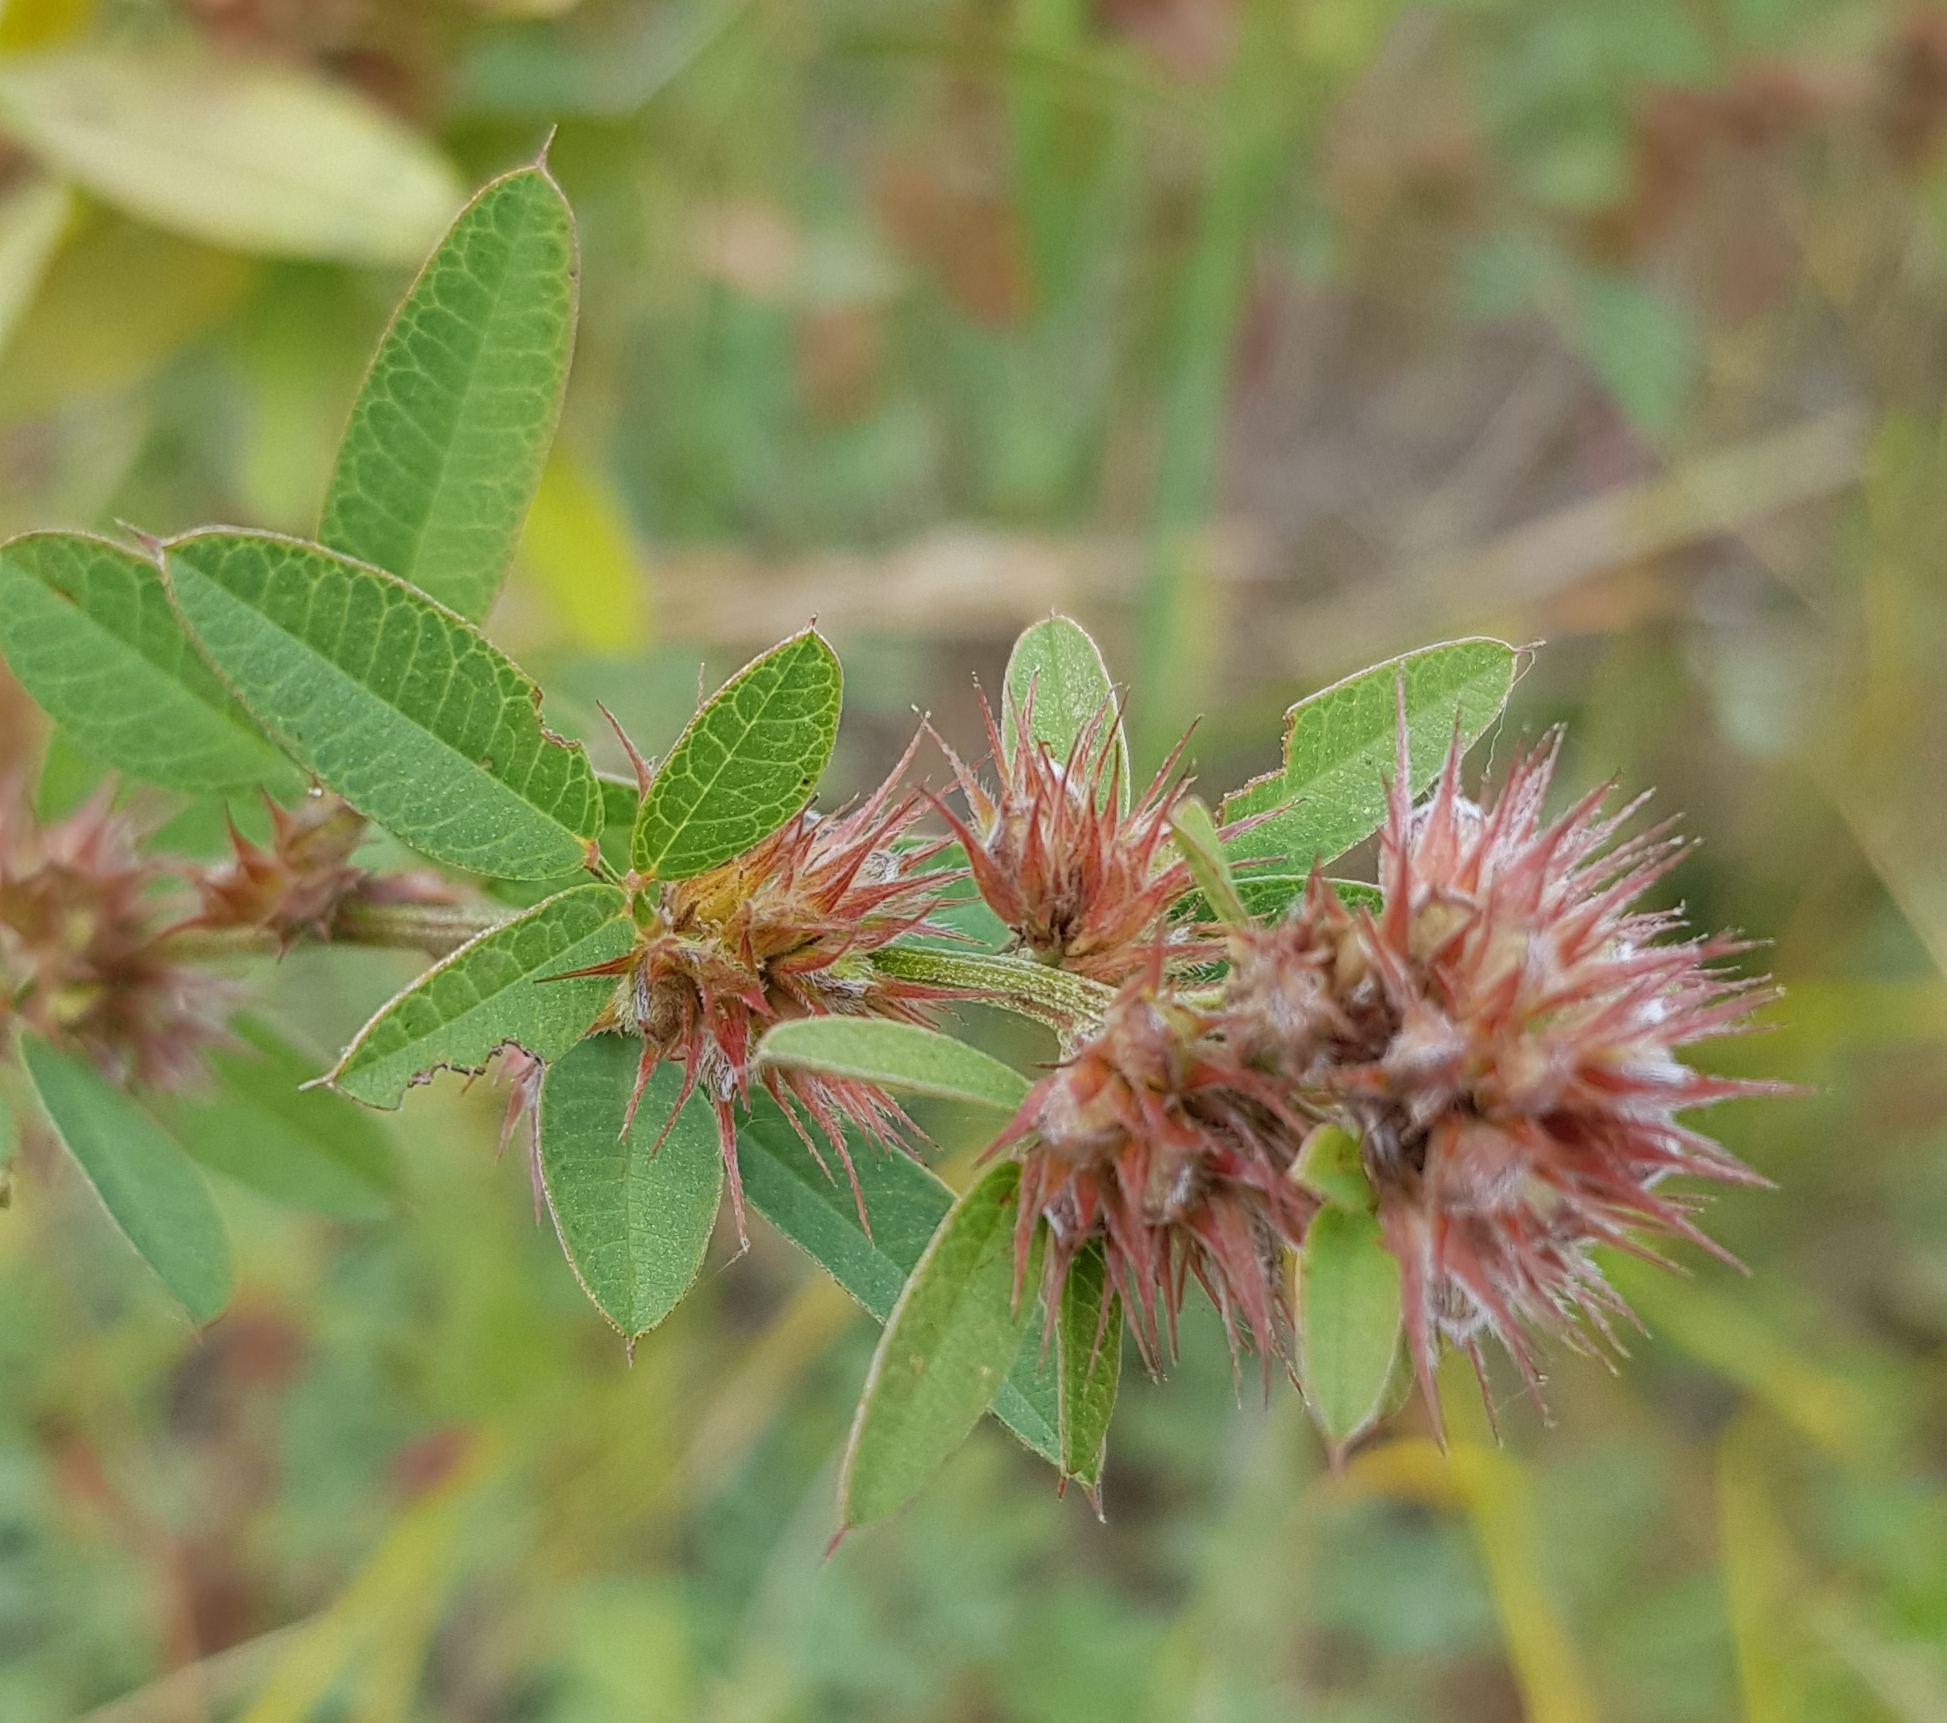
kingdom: Plantae
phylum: Tracheophyta
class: Magnoliopsida
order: Fabales
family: Fabaceae
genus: Lespedeza
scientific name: Lespedeza juncea
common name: Siberian lespedeza
